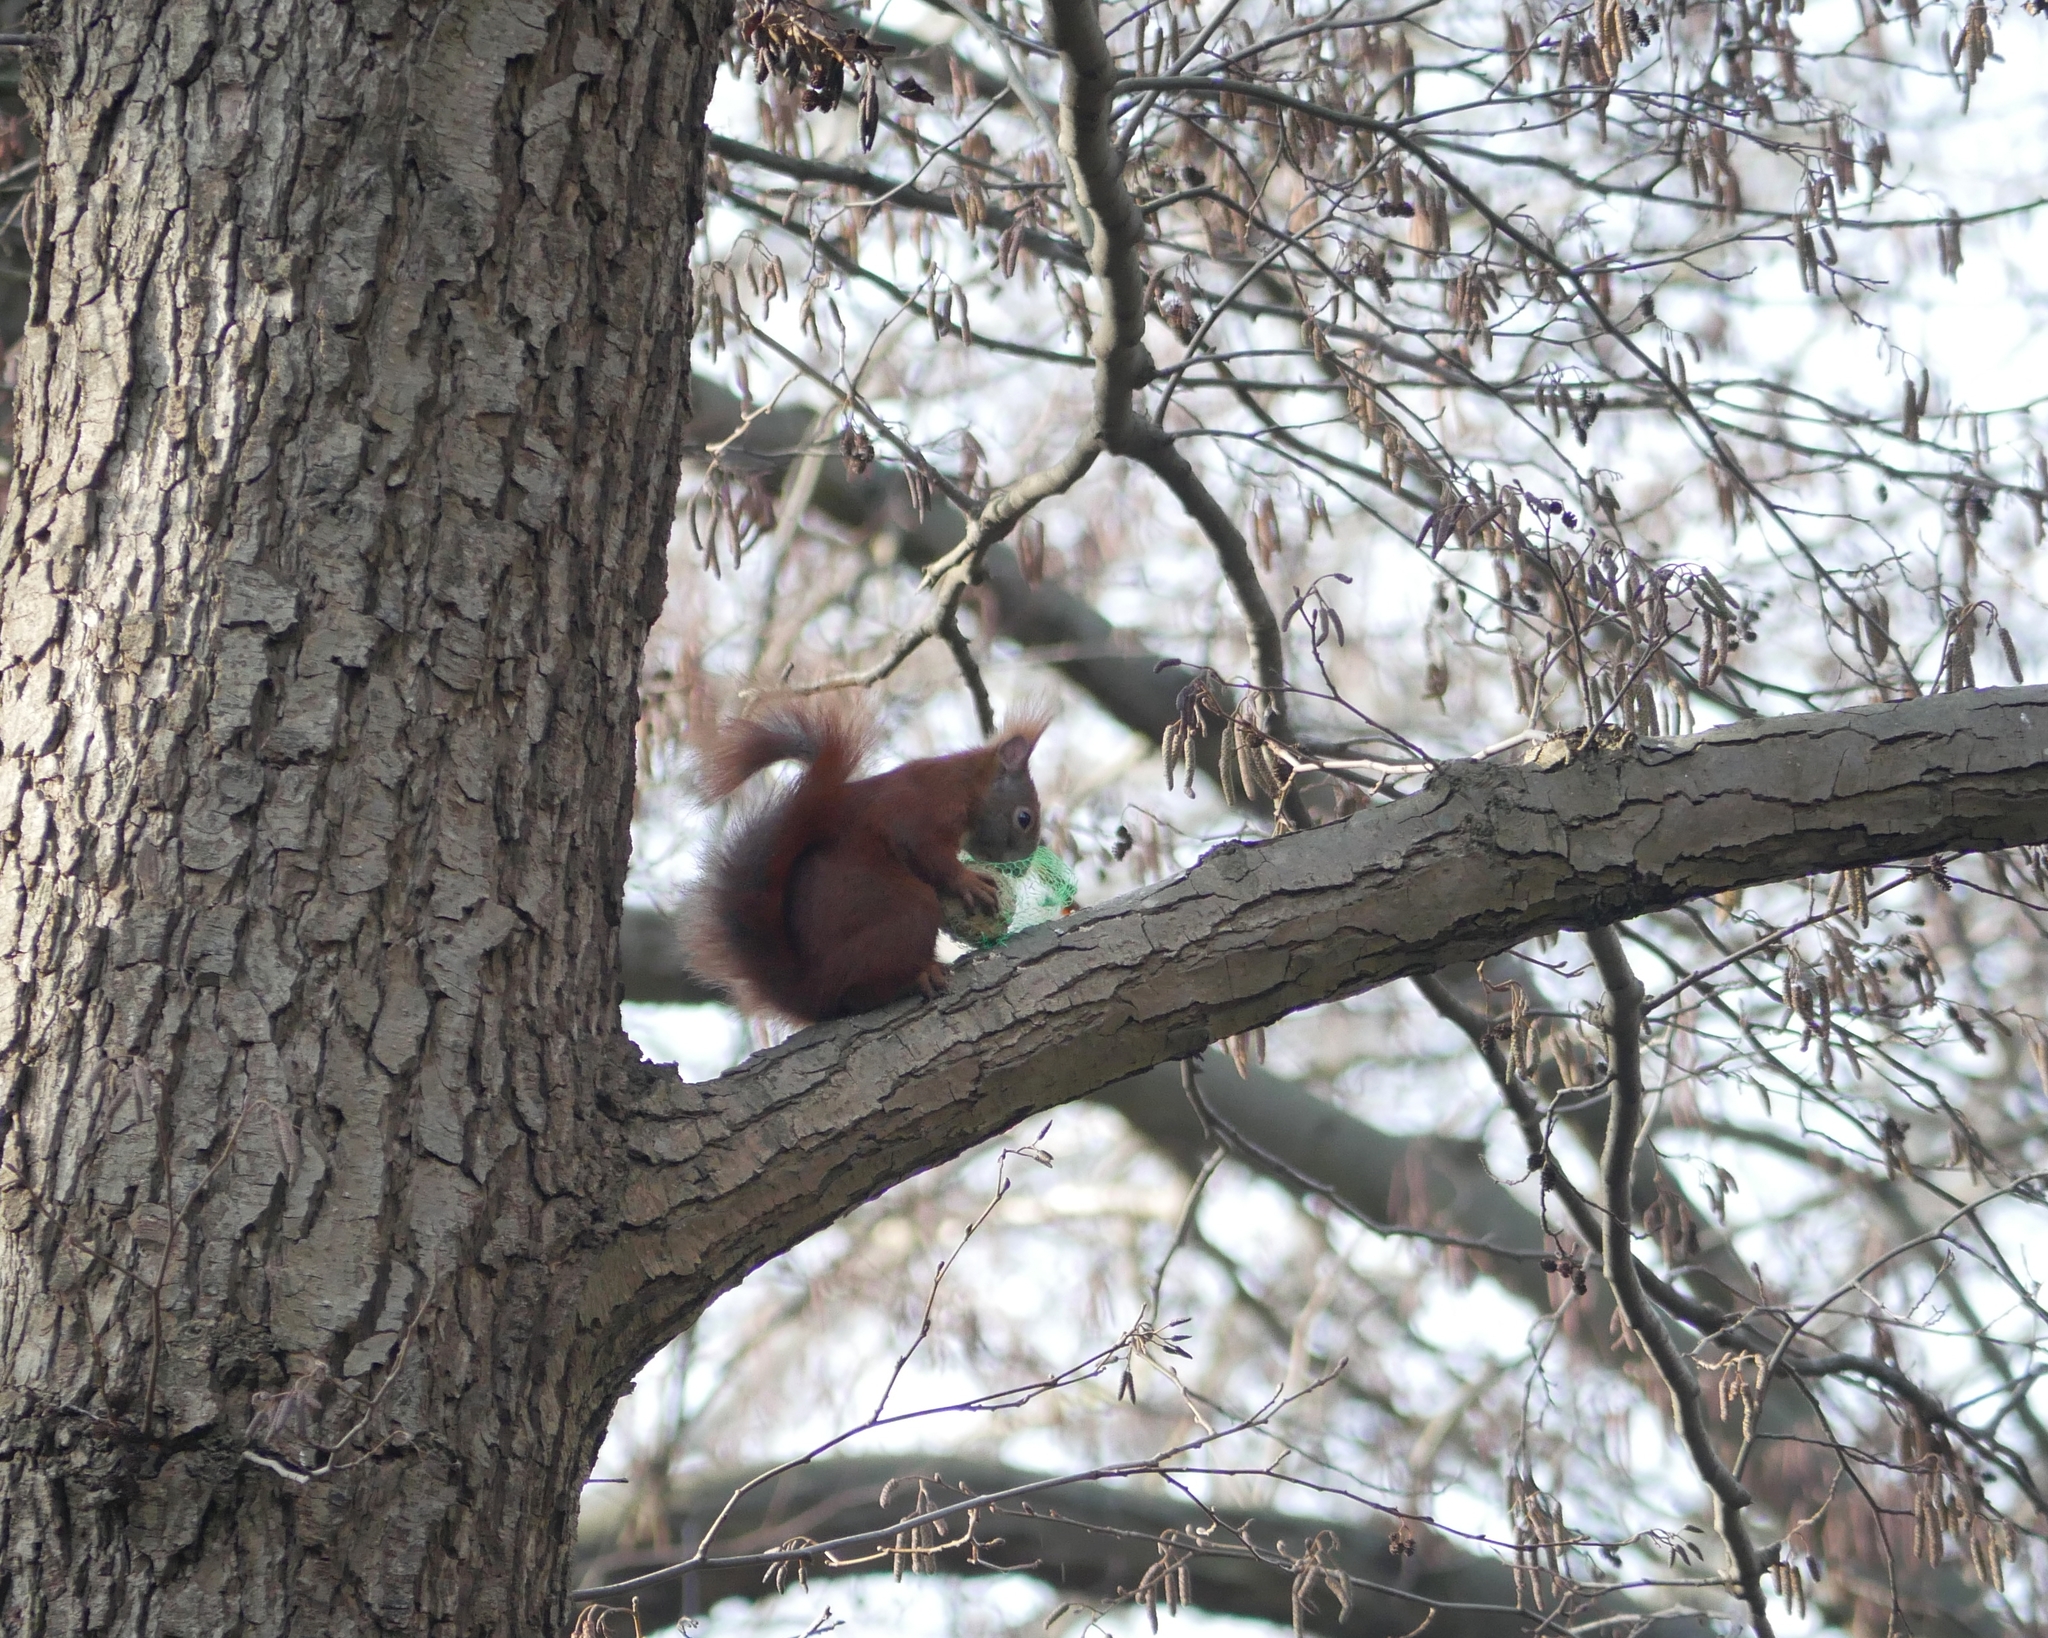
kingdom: Animalia
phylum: Chordata
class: Mammalia
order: Rodentia
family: Sciuridae
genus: Sciurus
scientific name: Sciurus vulgaris
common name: Eurasian red squirrel
